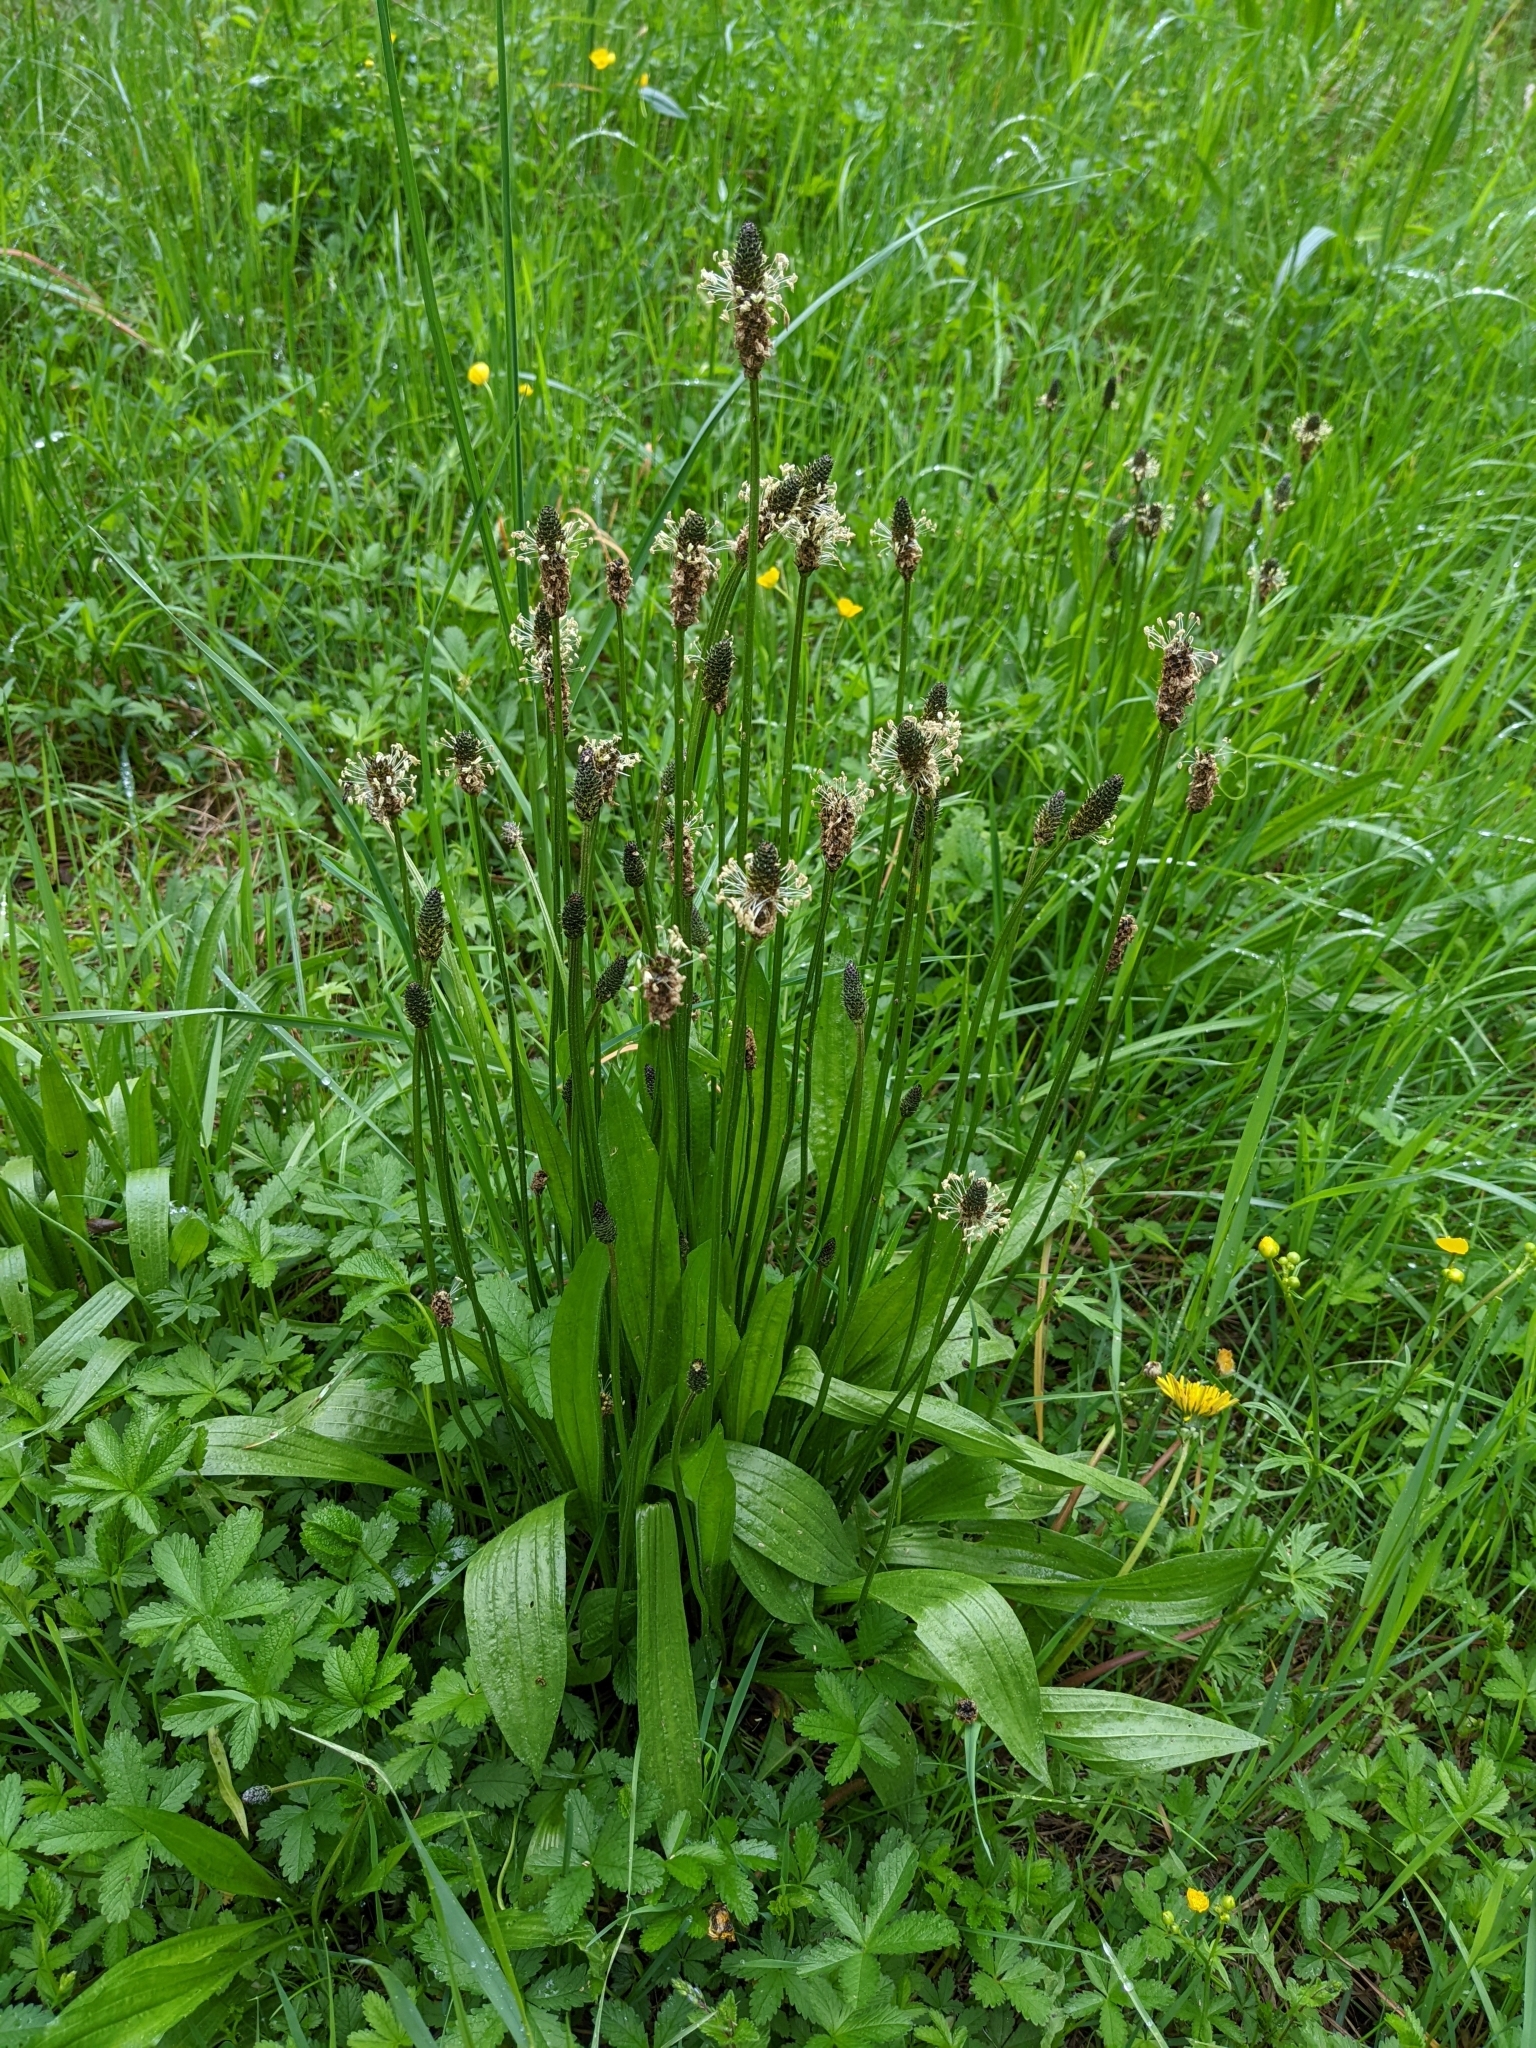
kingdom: Plantae
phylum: Tracheophyta
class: Magnoliopsida
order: Lamiales
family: Plantaginaceae
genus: Plantago
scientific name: Plantago lanceolata
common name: Ribwort plantain
